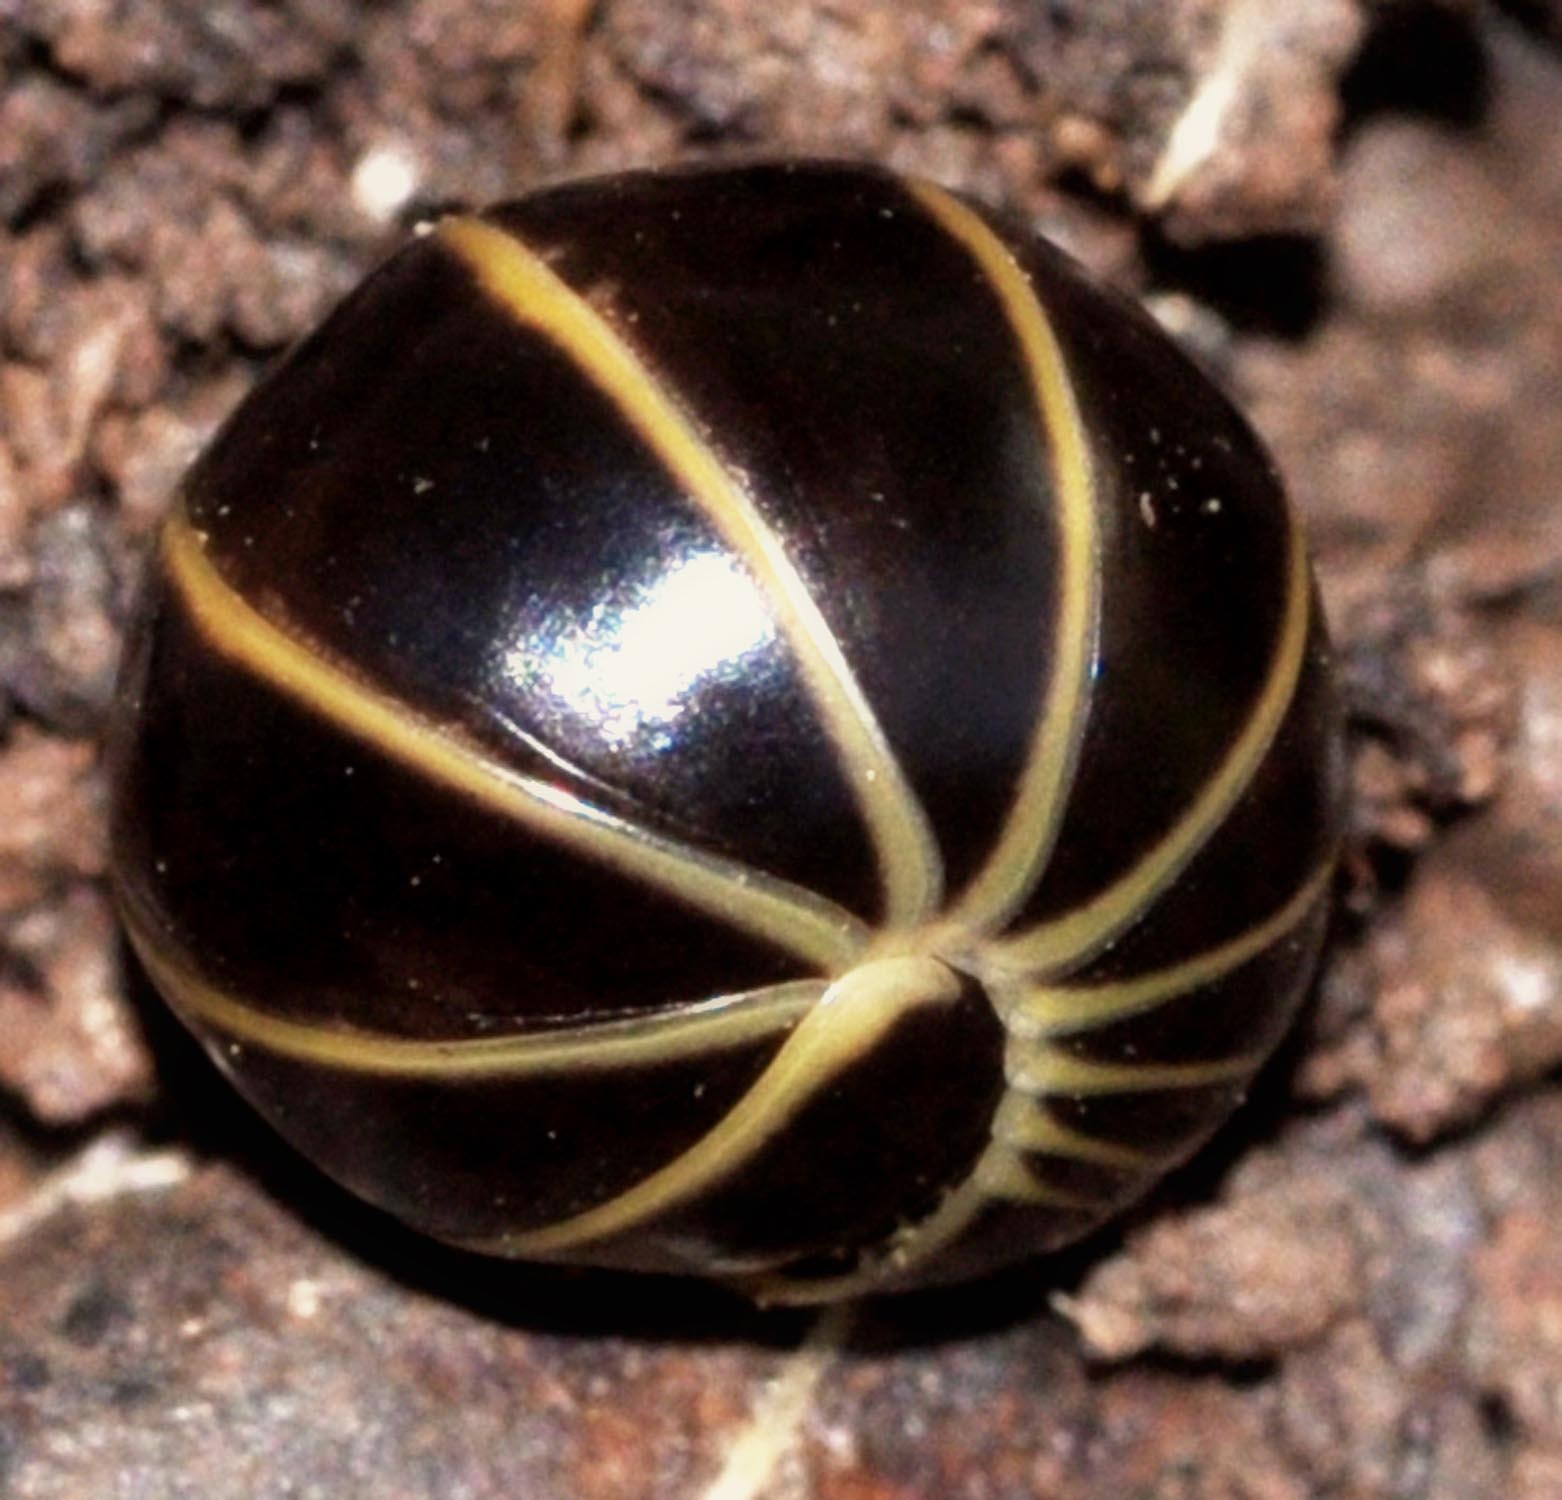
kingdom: Animalia
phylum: Arthropoda
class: Diplopoda
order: Glomerida
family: Glomeridae
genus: Glomeris
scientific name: Glomeris marginata
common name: Bordered pill millipede
